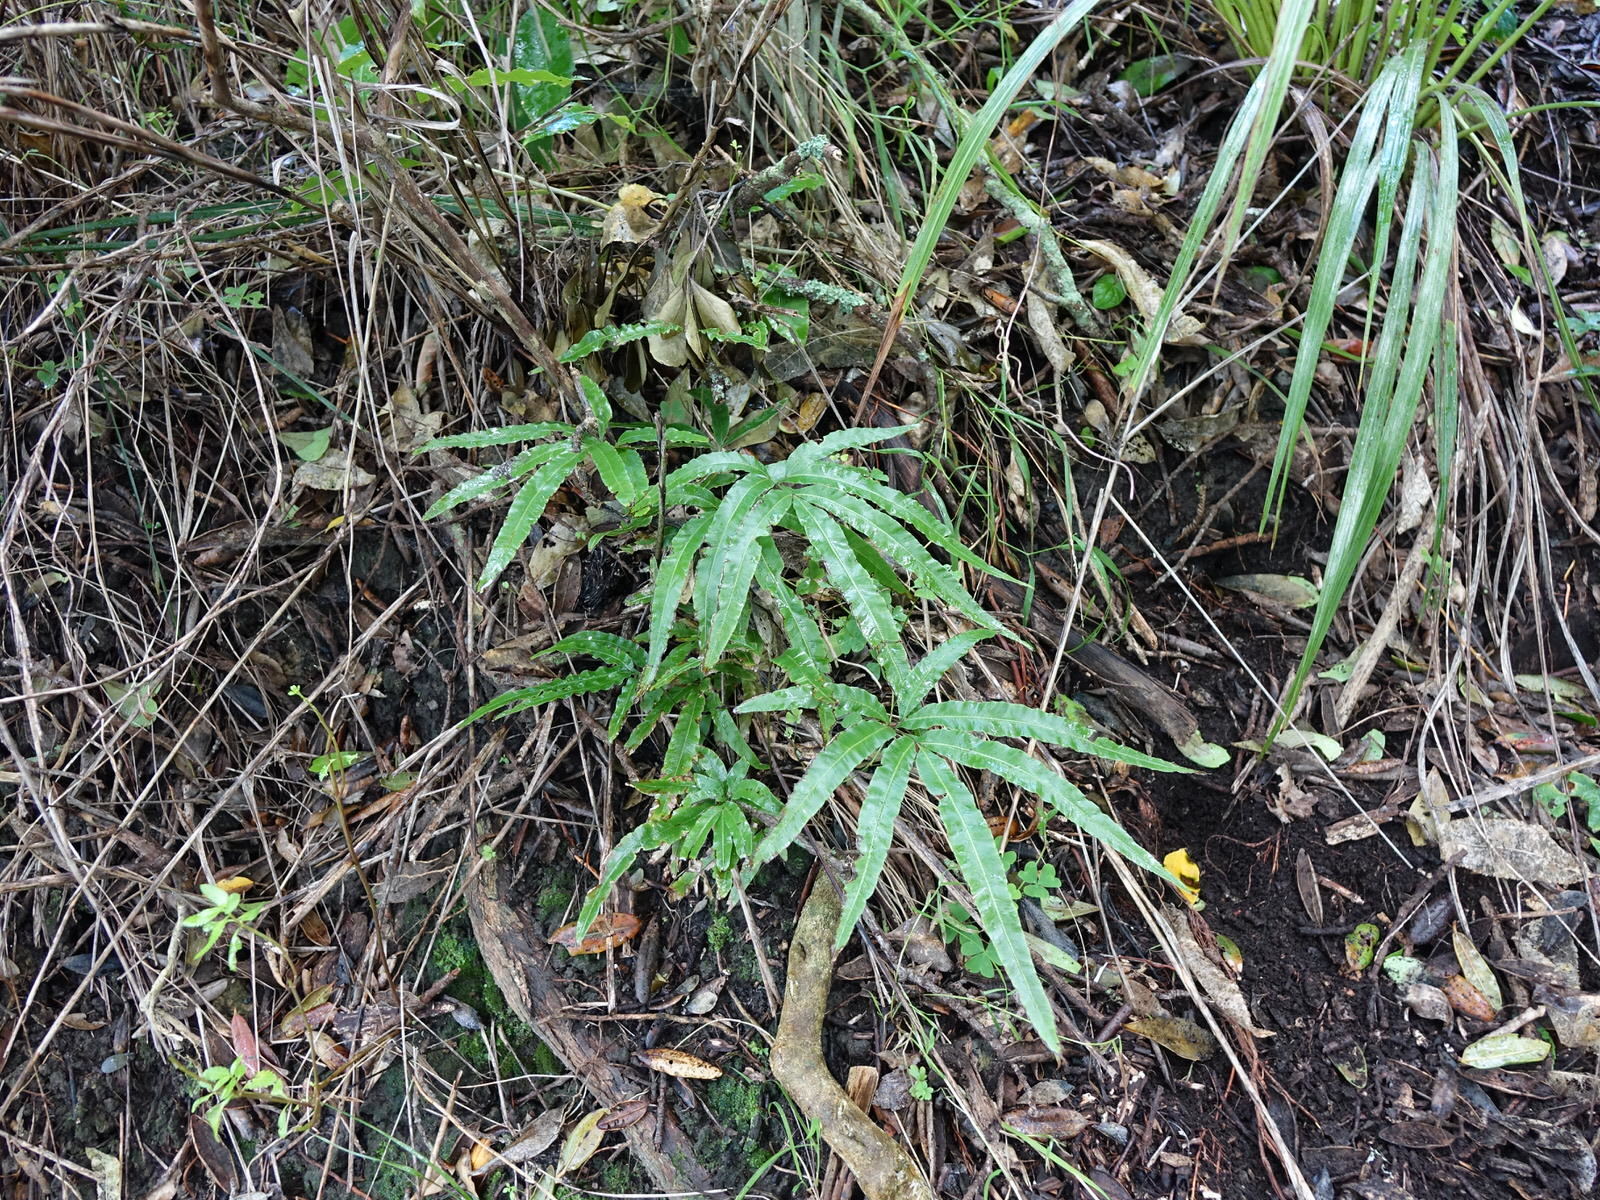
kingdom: Plantae
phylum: Tracheophyta
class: Polypodiopsida
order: Polypodiales
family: Pteridaceae
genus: Pteris
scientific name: Pteris cretica
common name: Ribbon fern
